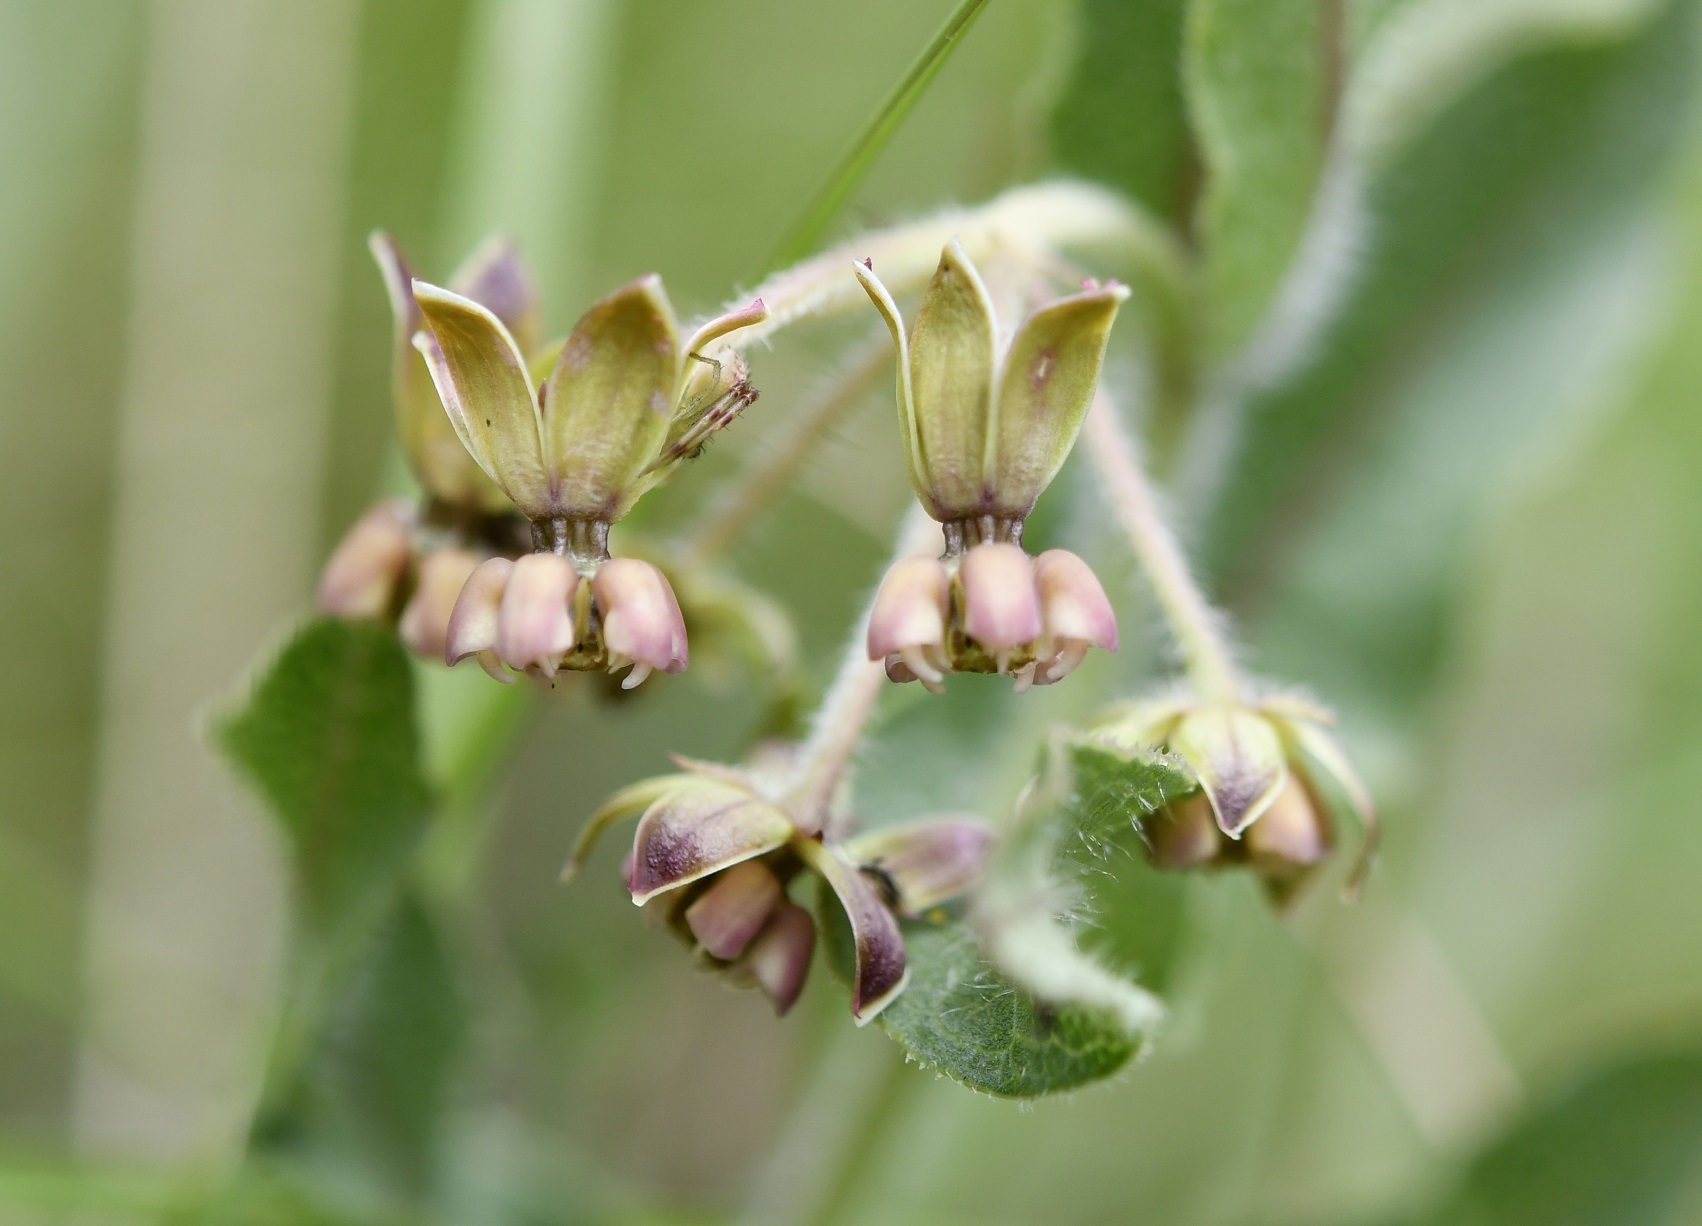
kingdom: Plantae
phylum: Tracheophyta
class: Magnoliopsida
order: Gentianales
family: Apocynaceae
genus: Asclepias
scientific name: Asclepias contrayerba
